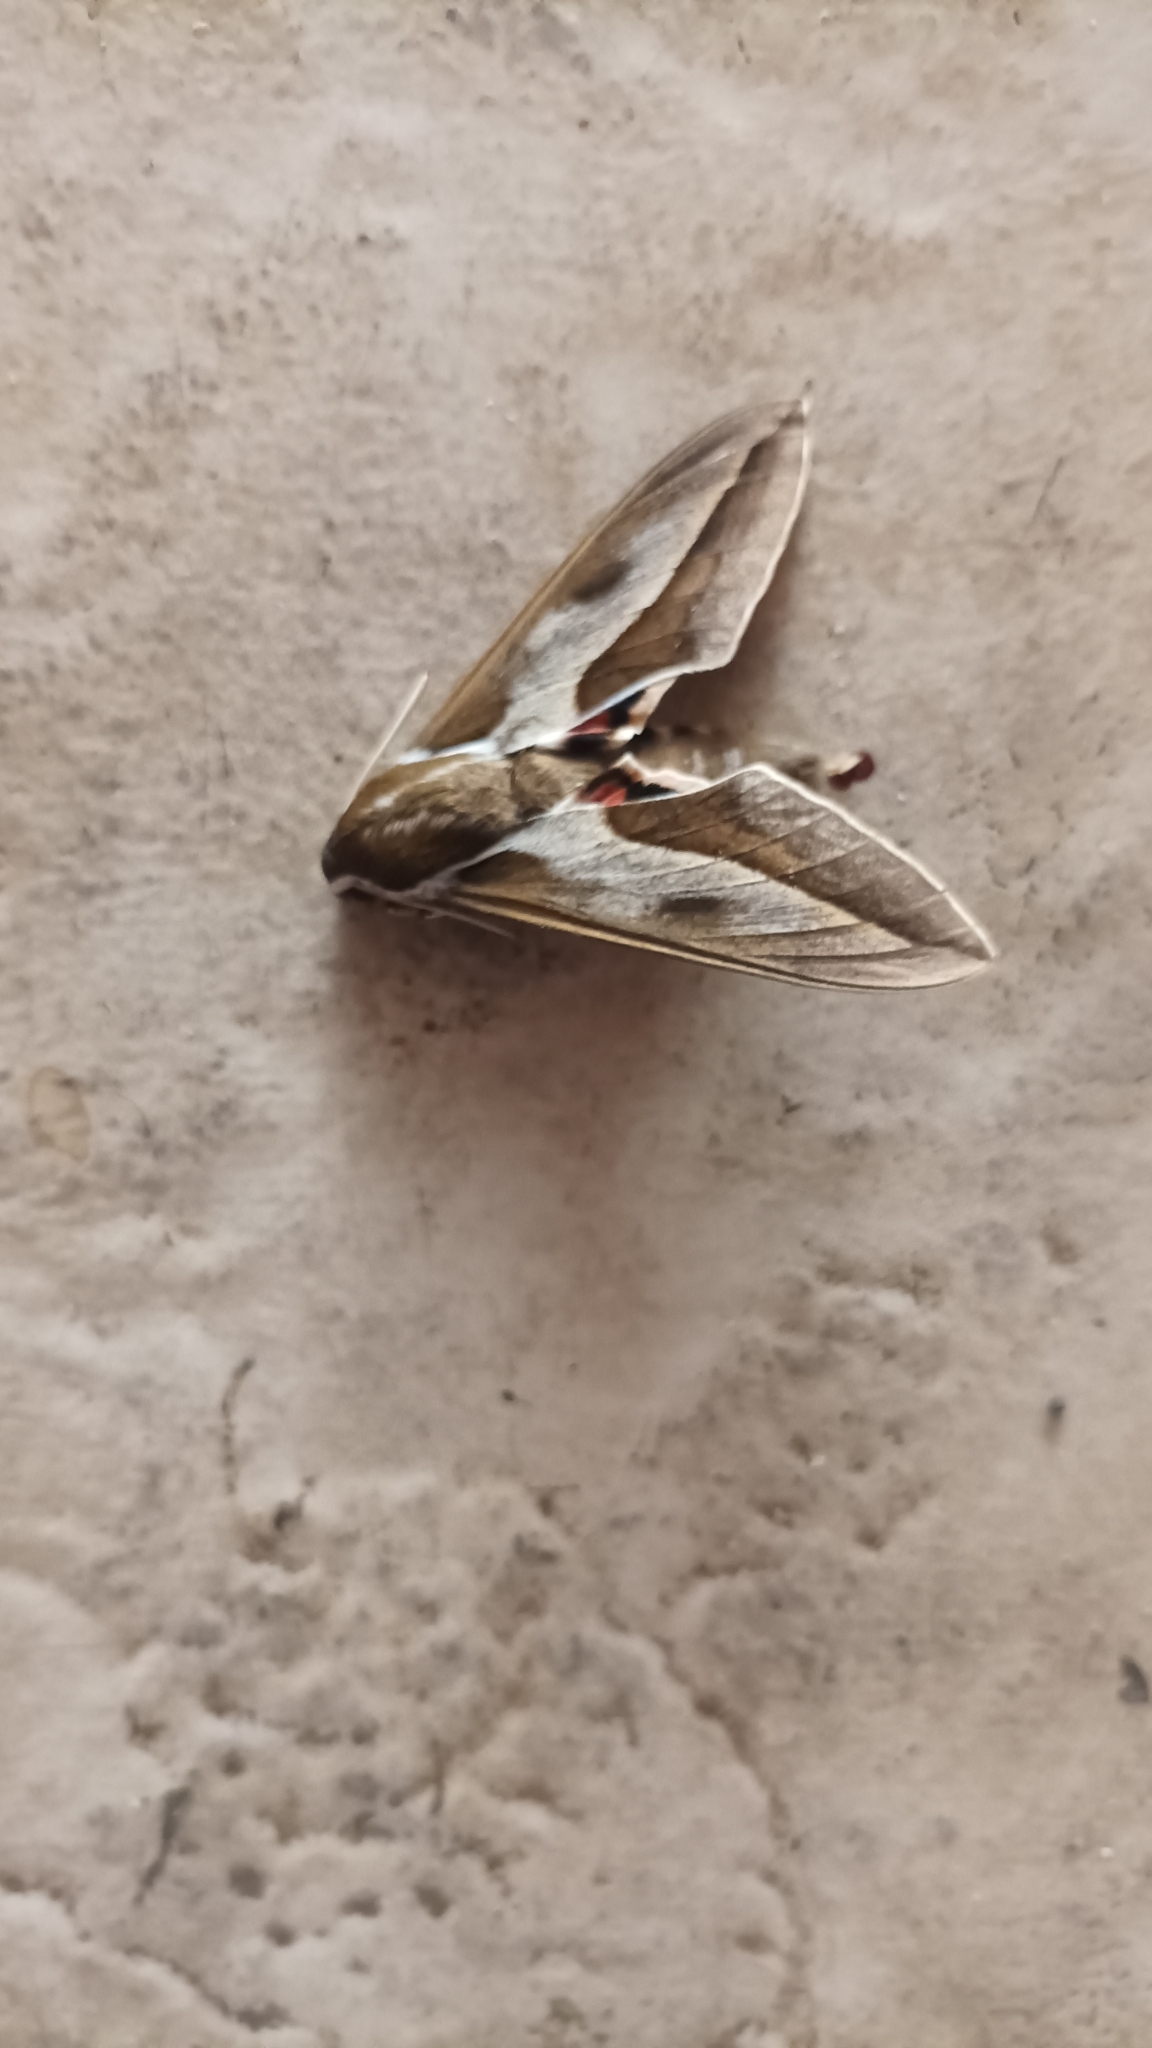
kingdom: Animalia
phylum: Arthropoda
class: Insecta
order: Lepidoptera
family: Sphingidae
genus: Hyles
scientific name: Hyles annei
